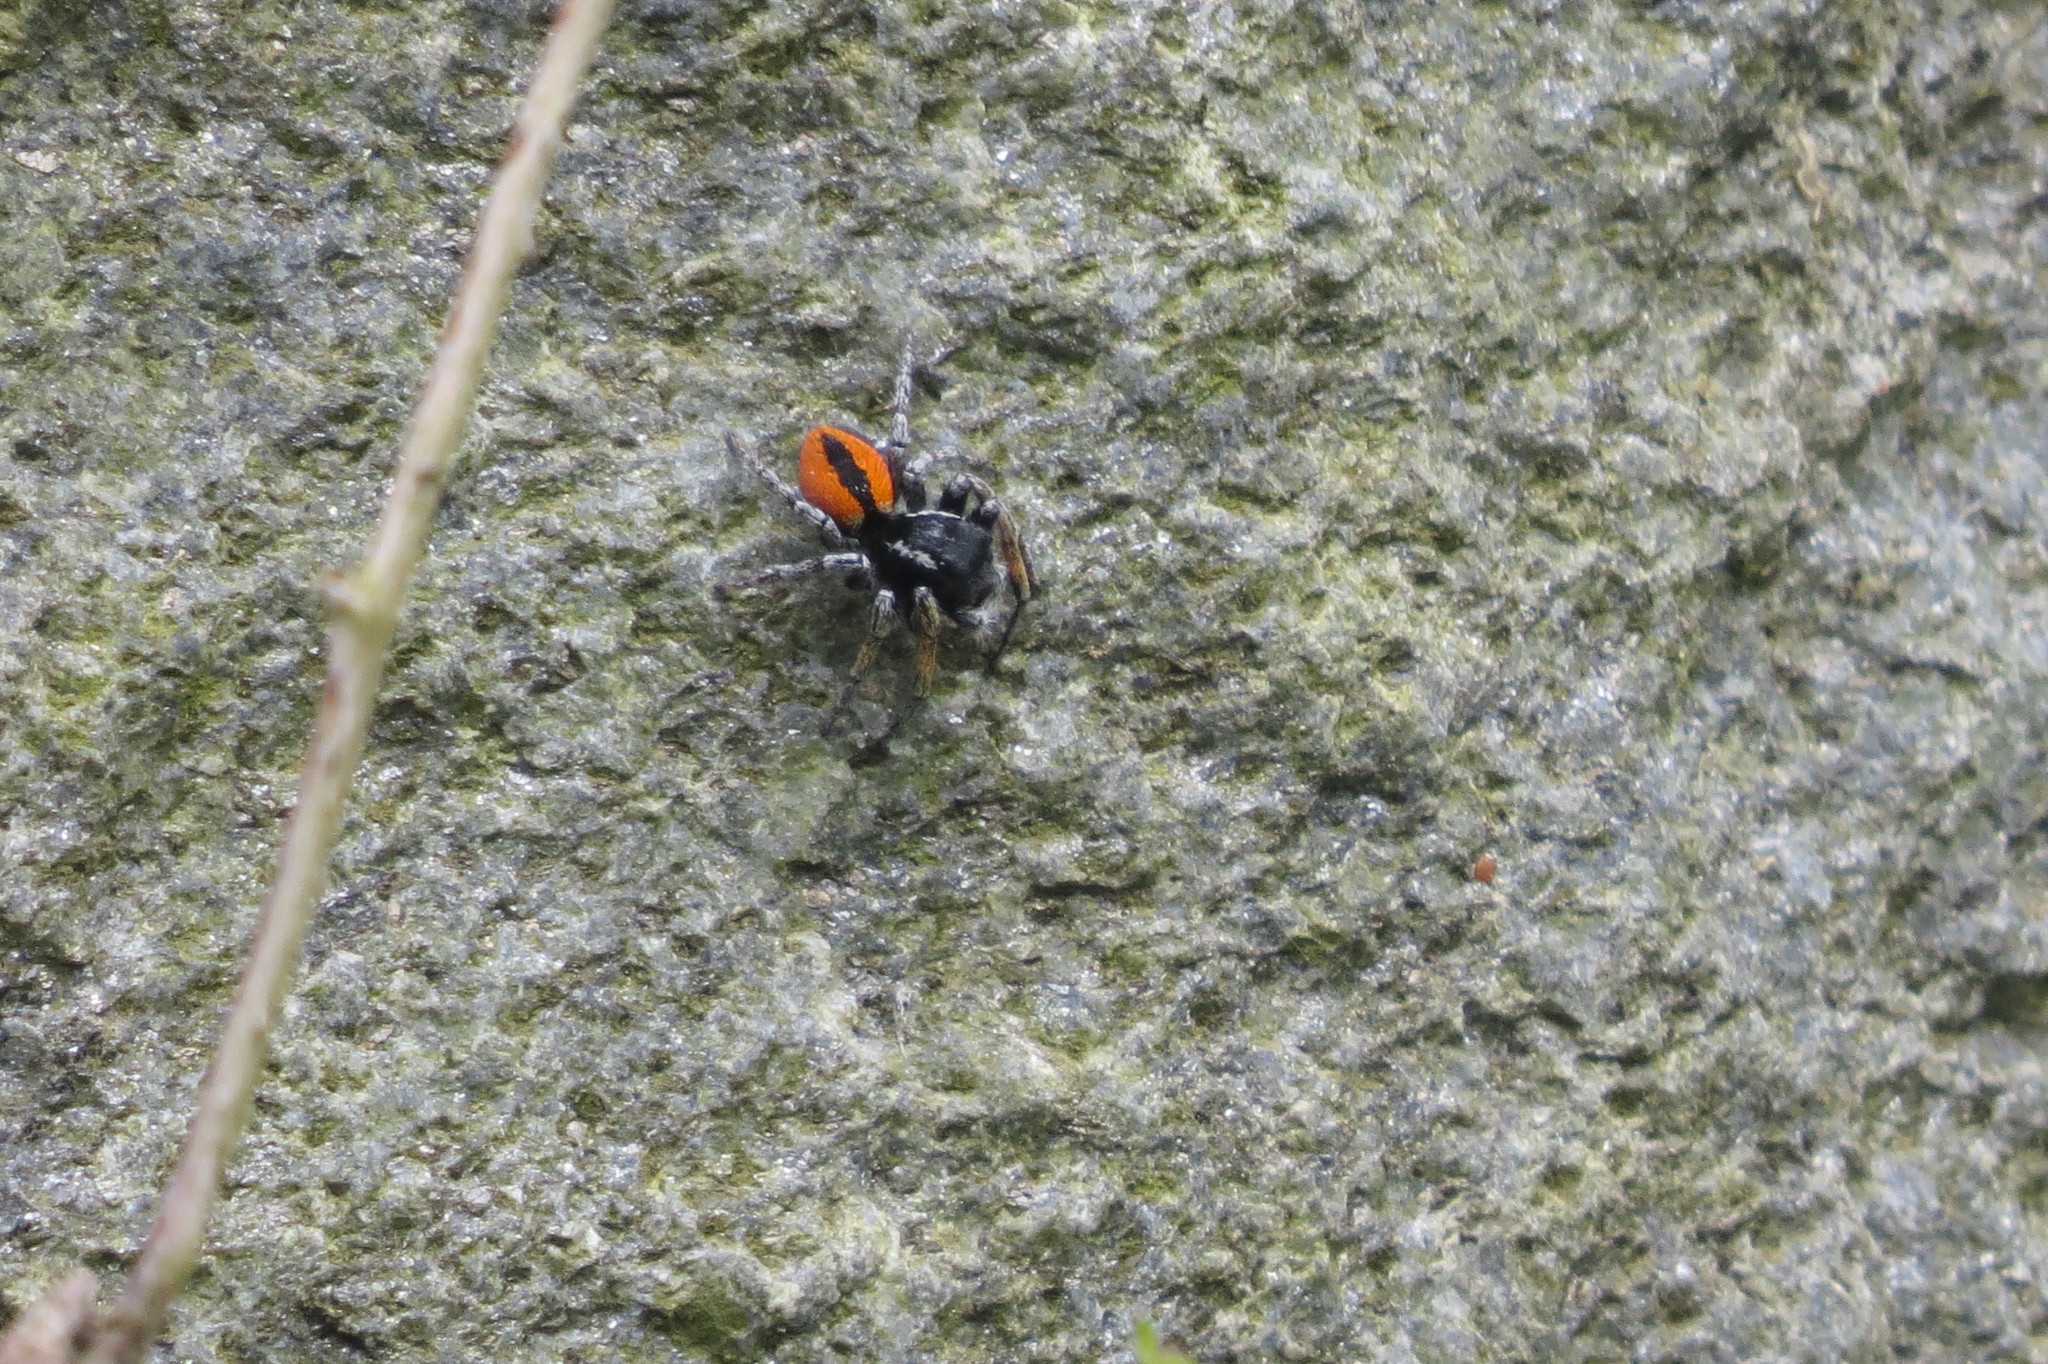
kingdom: Animalia
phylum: Arthropoda
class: Arachnida
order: Araneae
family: Salticidae
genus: Philaeus
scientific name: Philaeus chrysops
